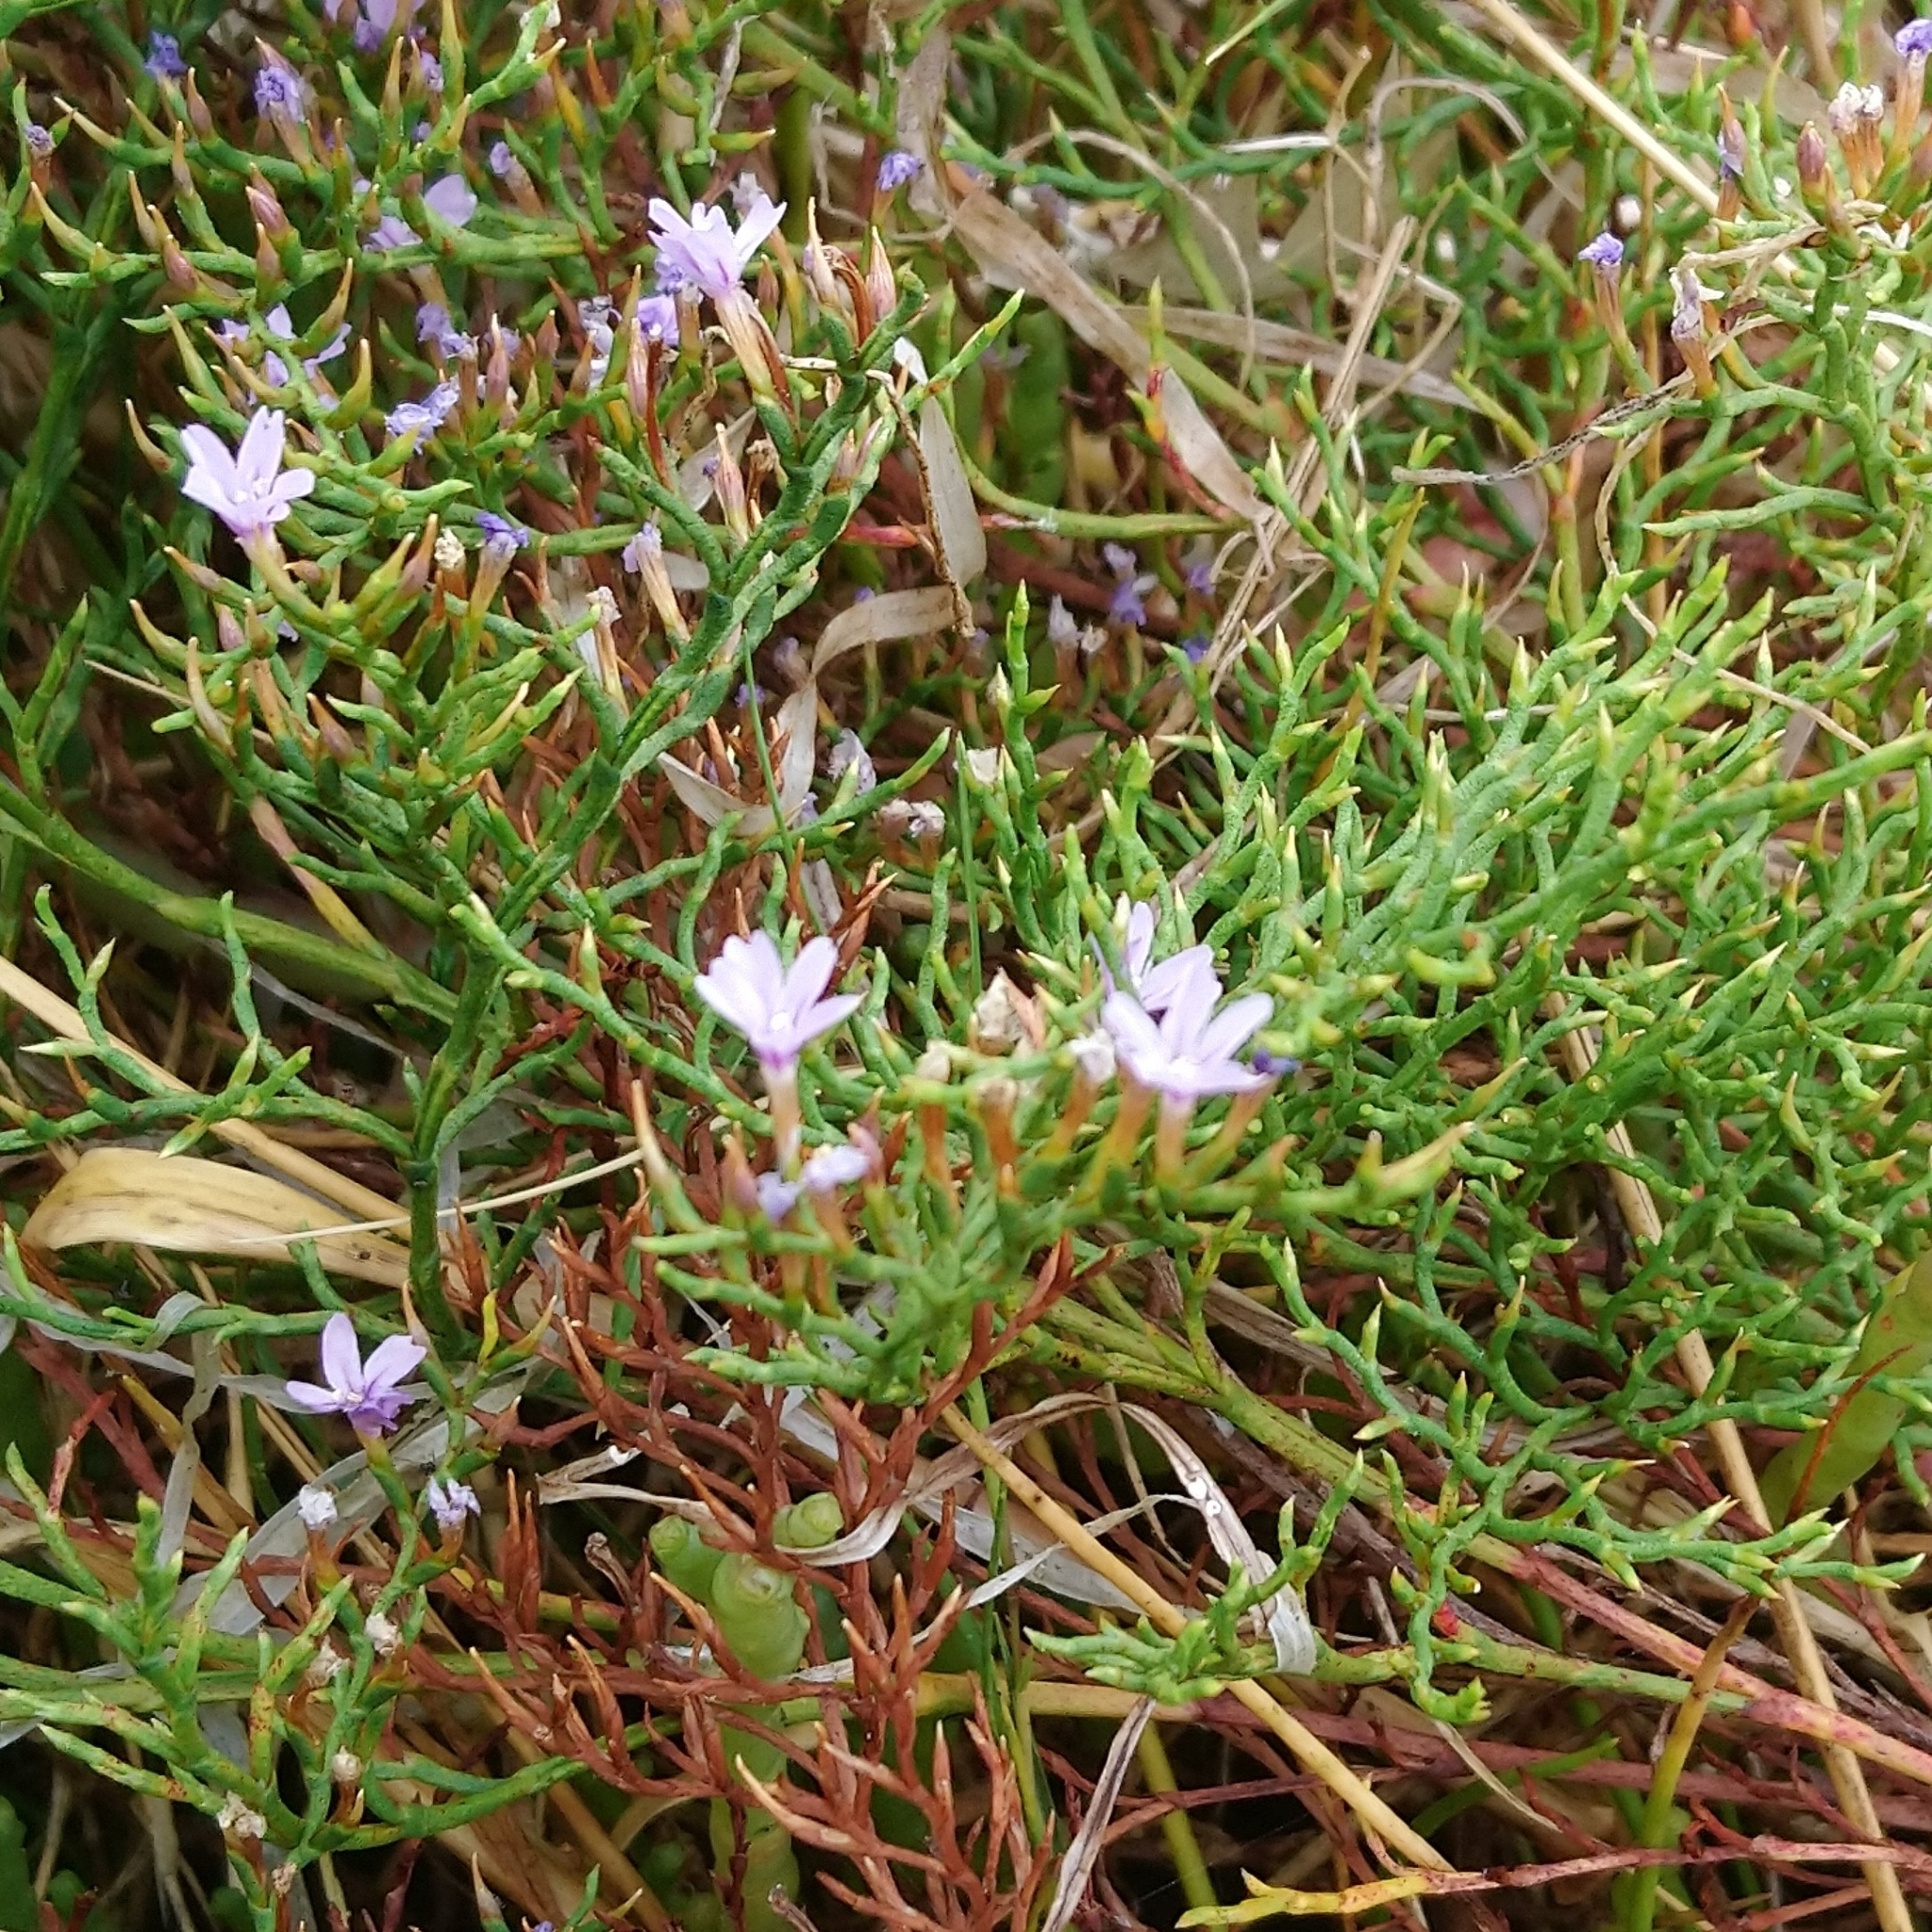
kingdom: Plantae
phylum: Tracheophyta
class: Magnoliopsida
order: Caryophyllales
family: Plumbaginaceae
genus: Limonium
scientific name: Limonium scabrum
